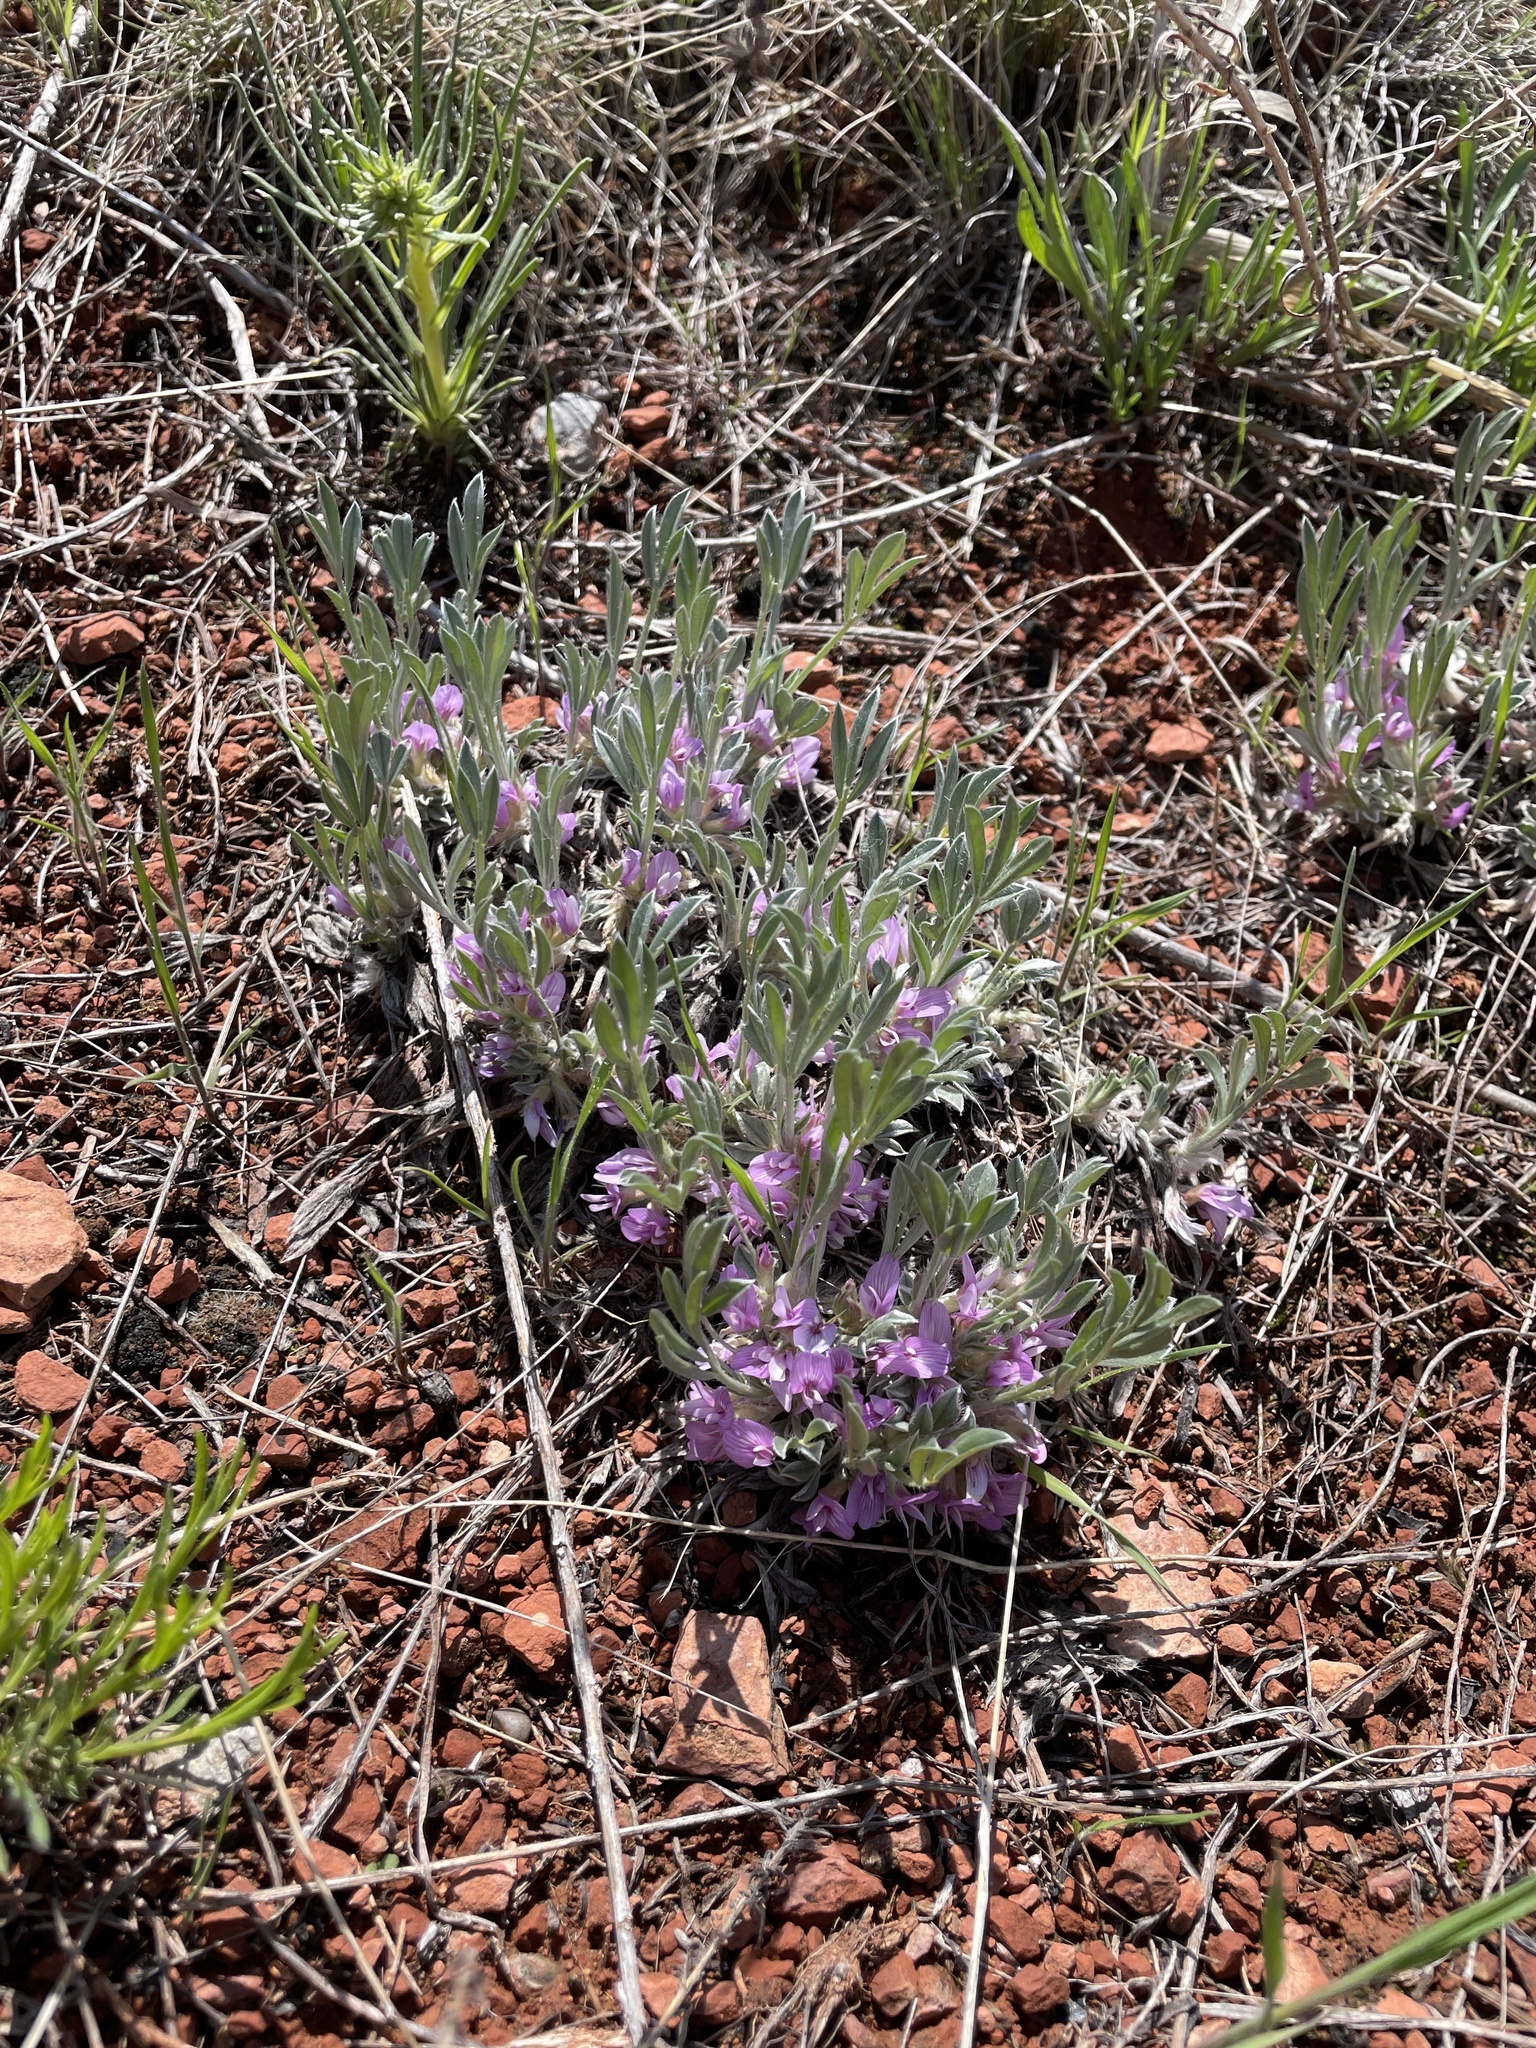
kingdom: Plantae
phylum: Tracheophyta
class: Magnoliopsida
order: Fabales
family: Fabaceae
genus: Astragalus
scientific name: Astragalus tridactylicus
